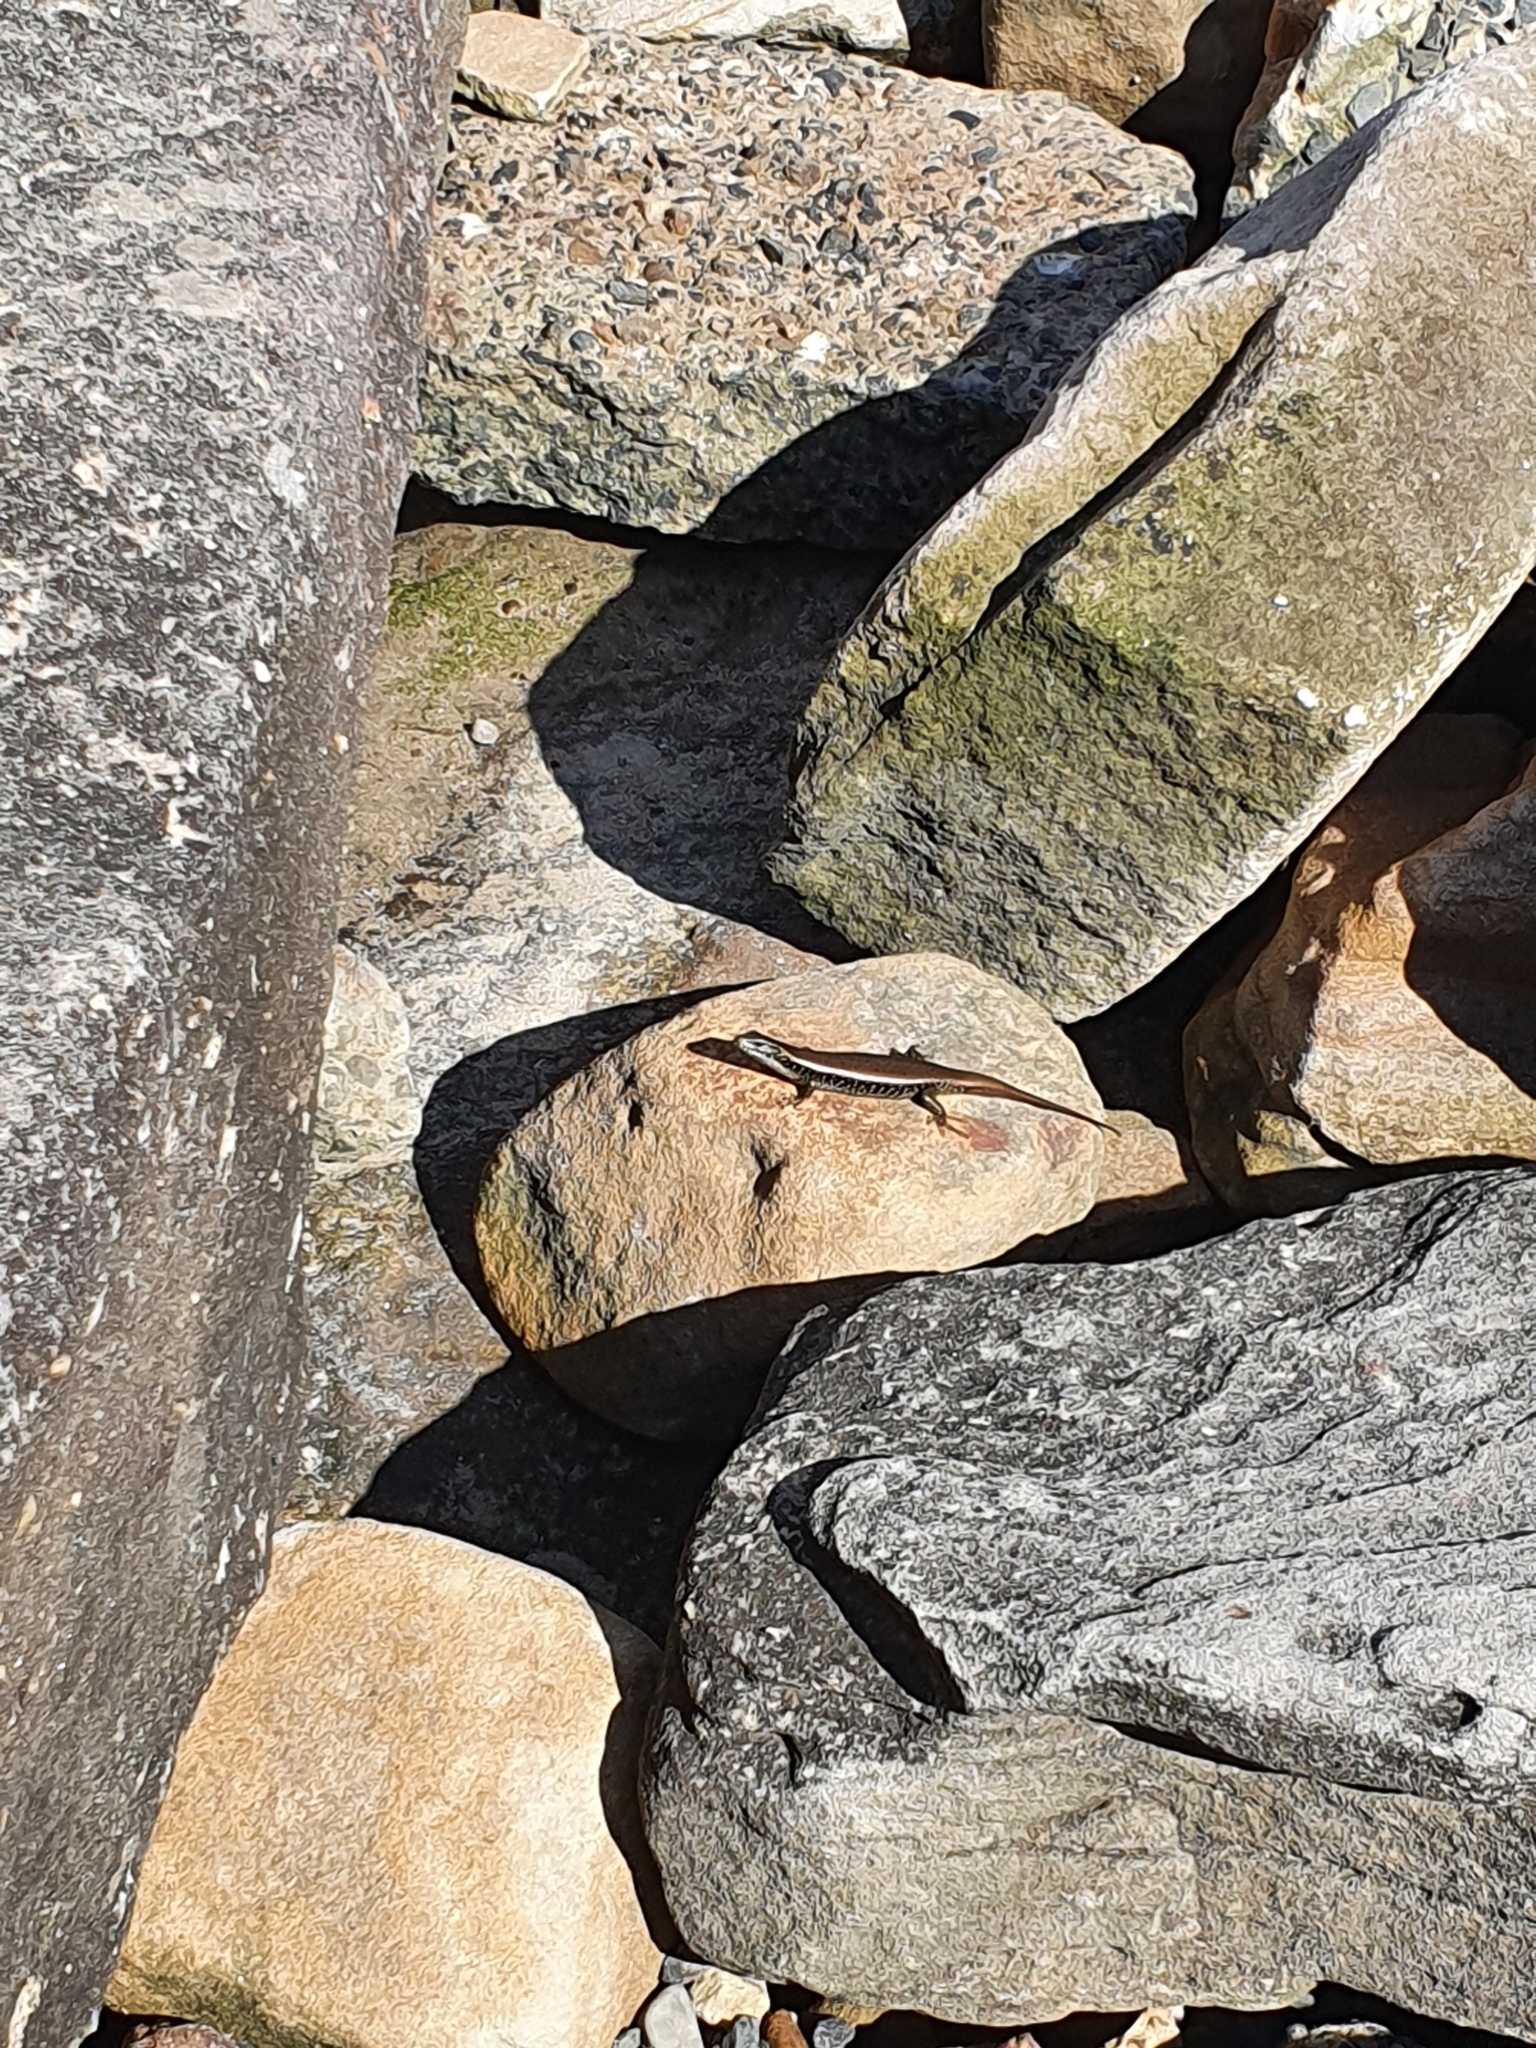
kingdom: Animalia
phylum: Chordata
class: Squamata
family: Scincidae
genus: Eulamprus
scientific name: Eulamprus quoyii
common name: Eastern water skink
